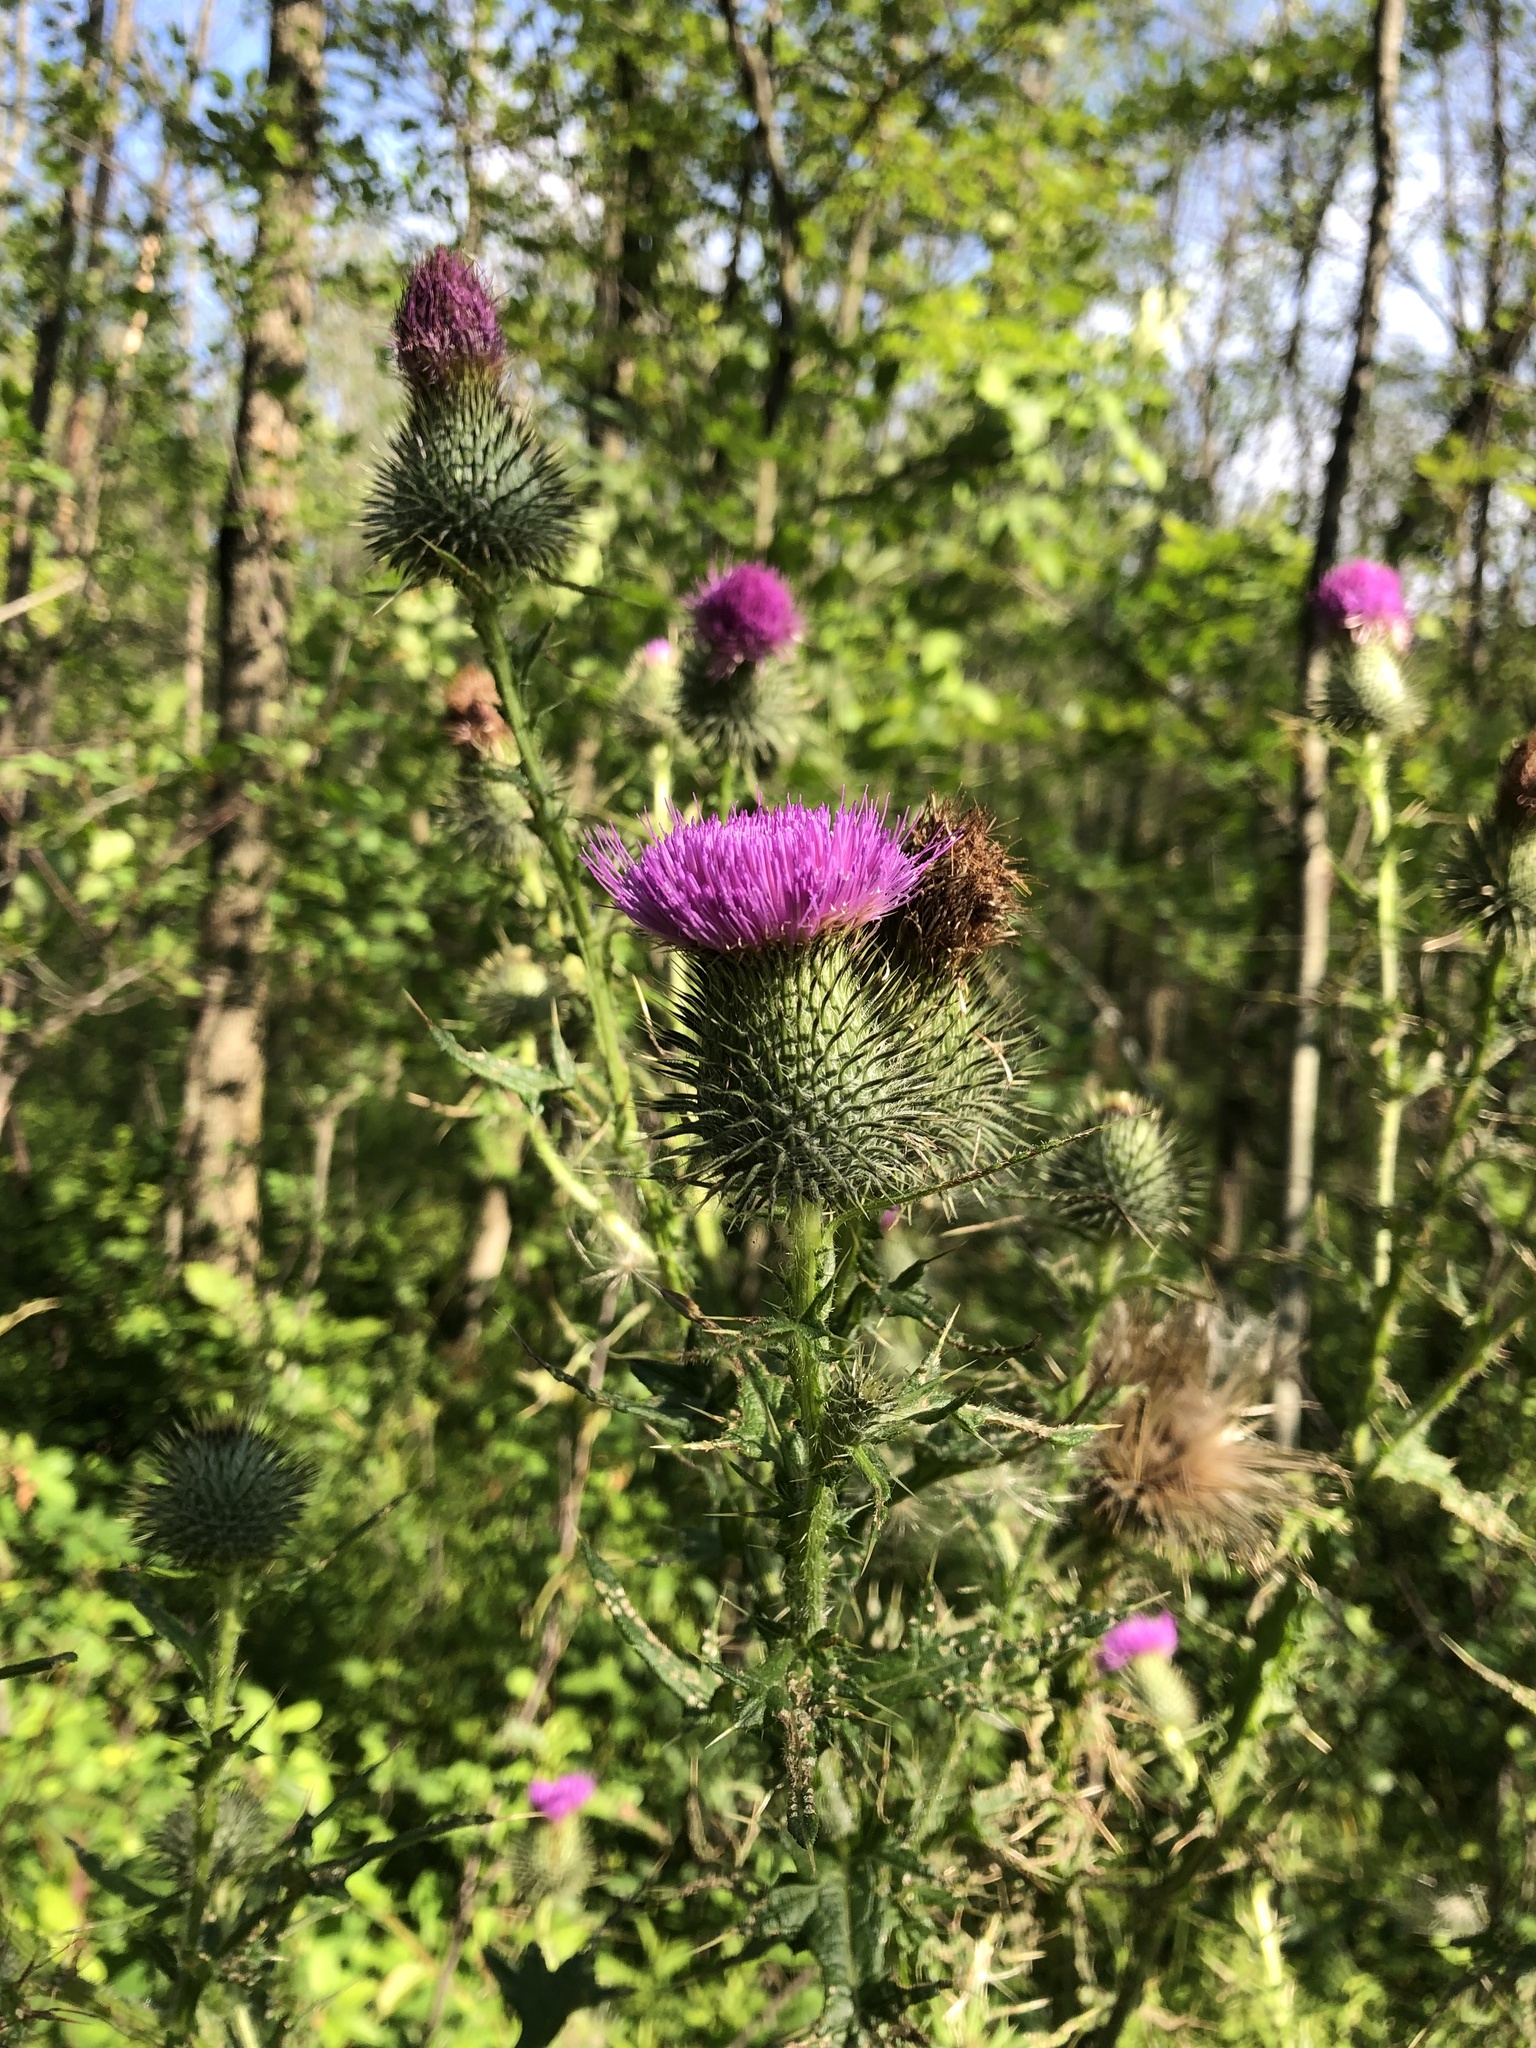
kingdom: Plantae
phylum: Tracheophyta
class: Magnoliopsida
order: Asterales
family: Asteraceae
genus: Cirsium
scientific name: Cirsium vulgare
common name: Bull thistle
